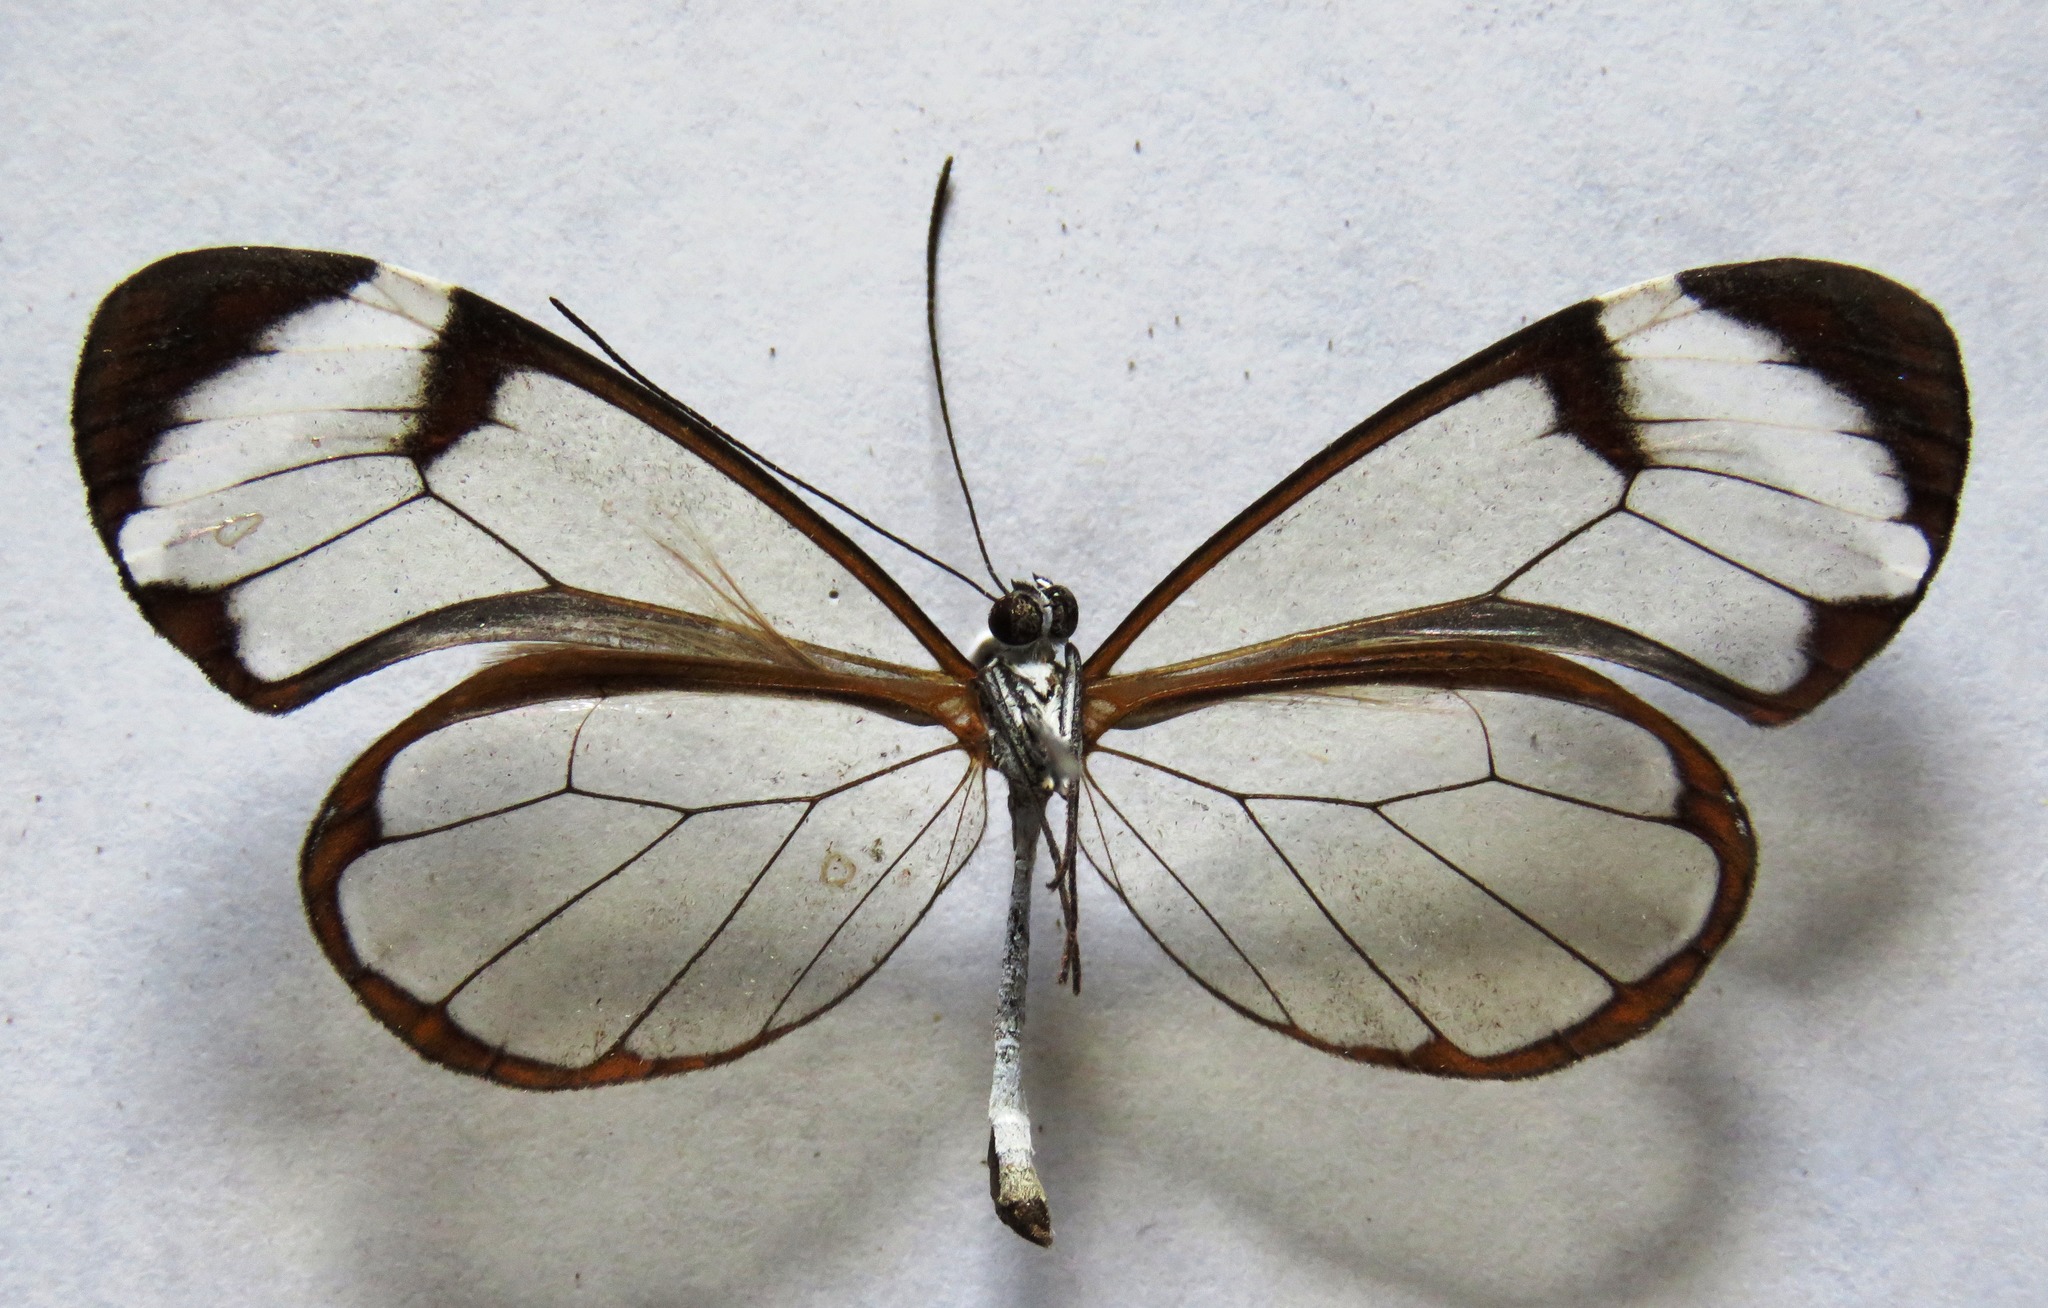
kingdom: Animalia
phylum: Arthropoda
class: Insecta
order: Lepidoptera
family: Nymphalidae
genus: Greta
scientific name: Greta morgane
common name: Thick-tipped greta
